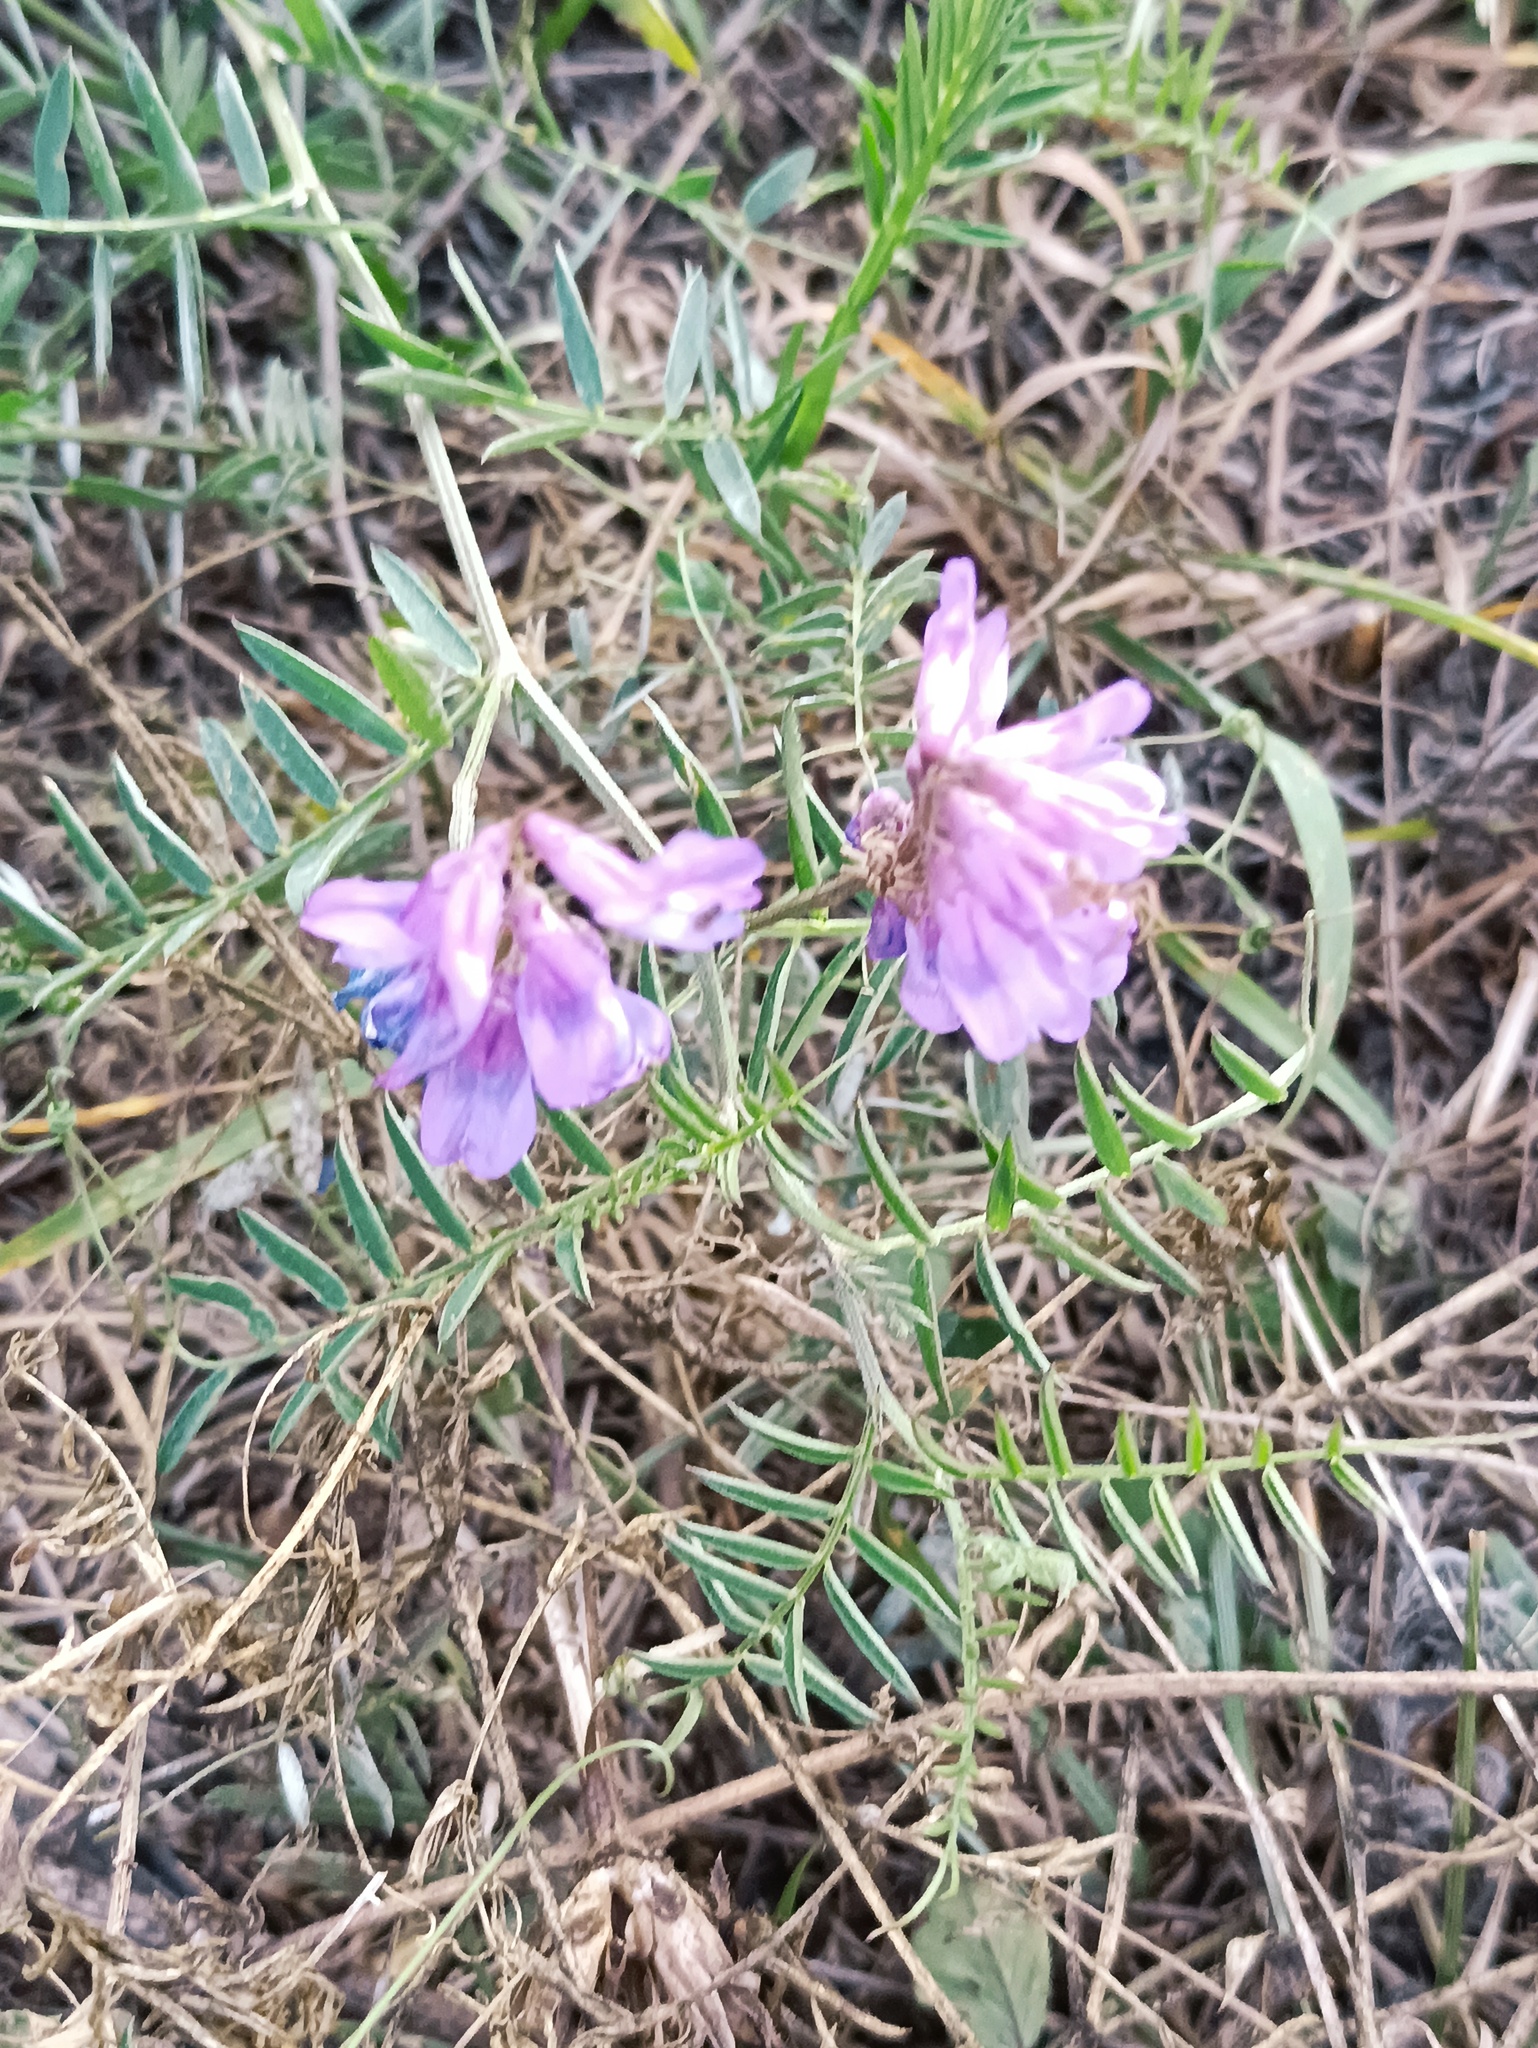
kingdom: Plantae
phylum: Tracheophyta
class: Magnoliopsida
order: Fabales
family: Fabaceae
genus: Vicia
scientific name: Vicia cracca
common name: Bird vetch
